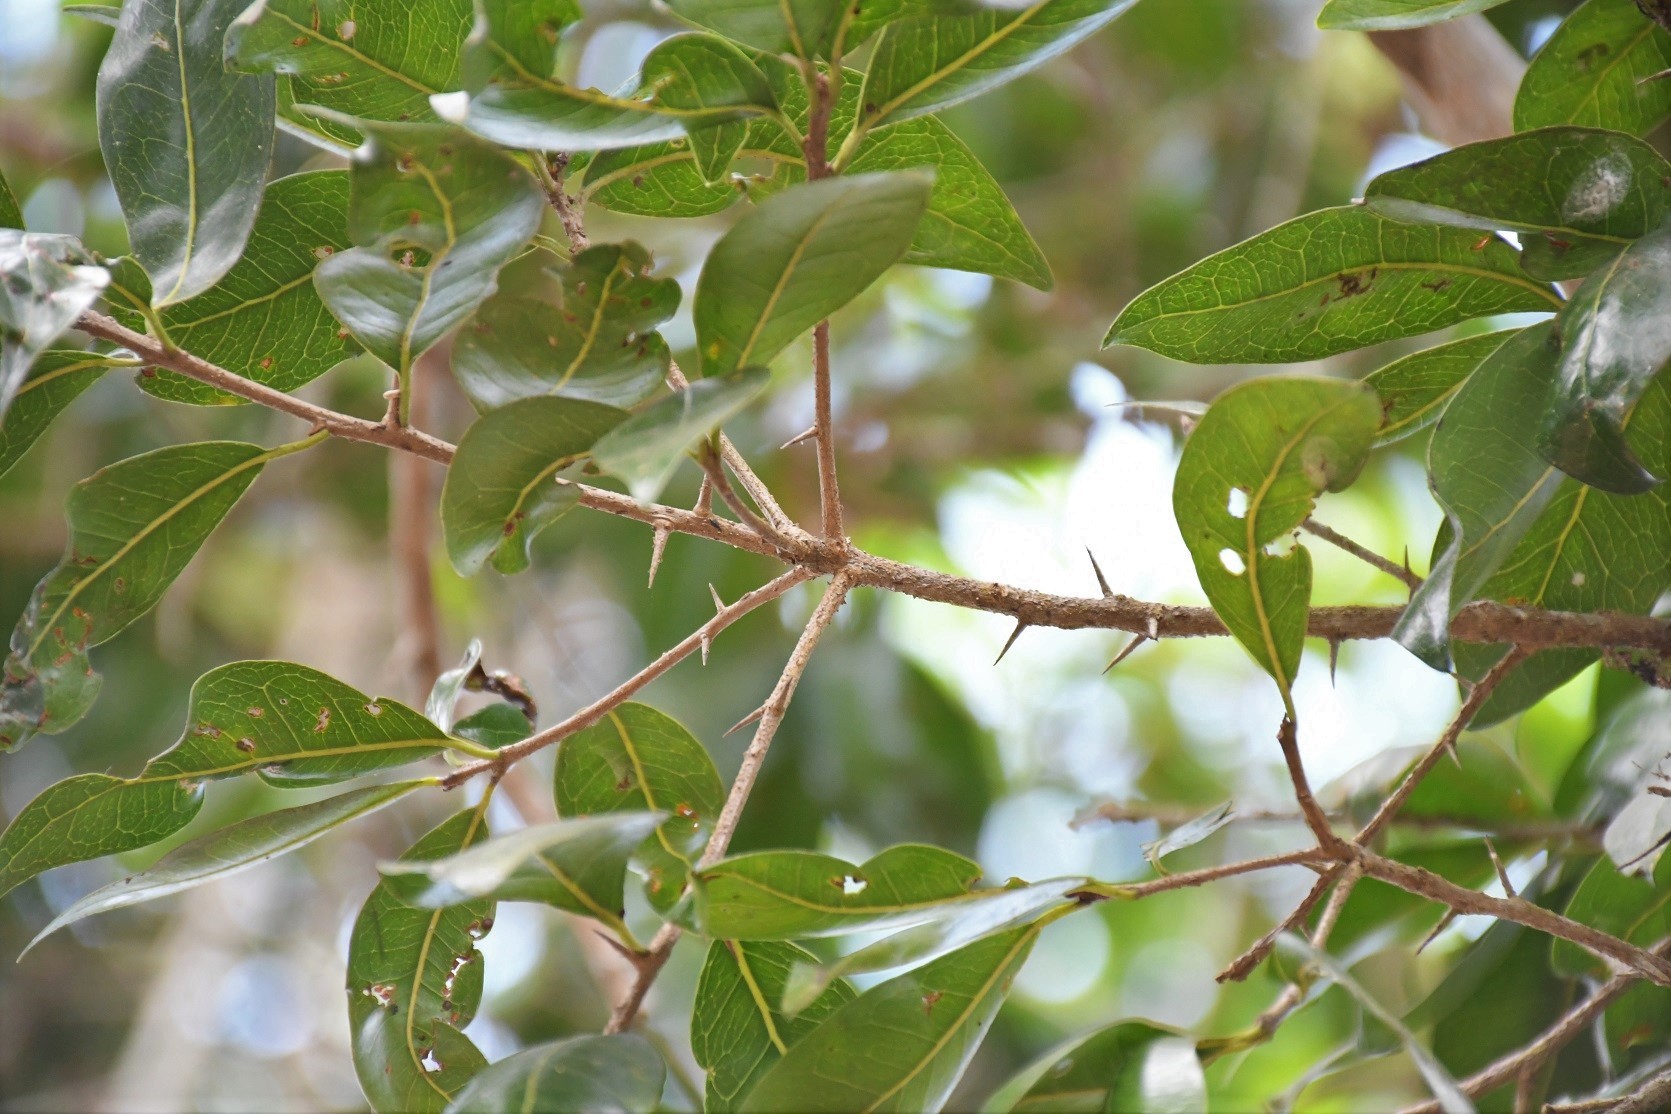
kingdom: Plantae
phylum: Tracheophyta
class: Magnoliopsida
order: Ericales
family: Sapotaceae
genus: Sideroxylon
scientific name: Sideroxylon persimile
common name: Bumelia
